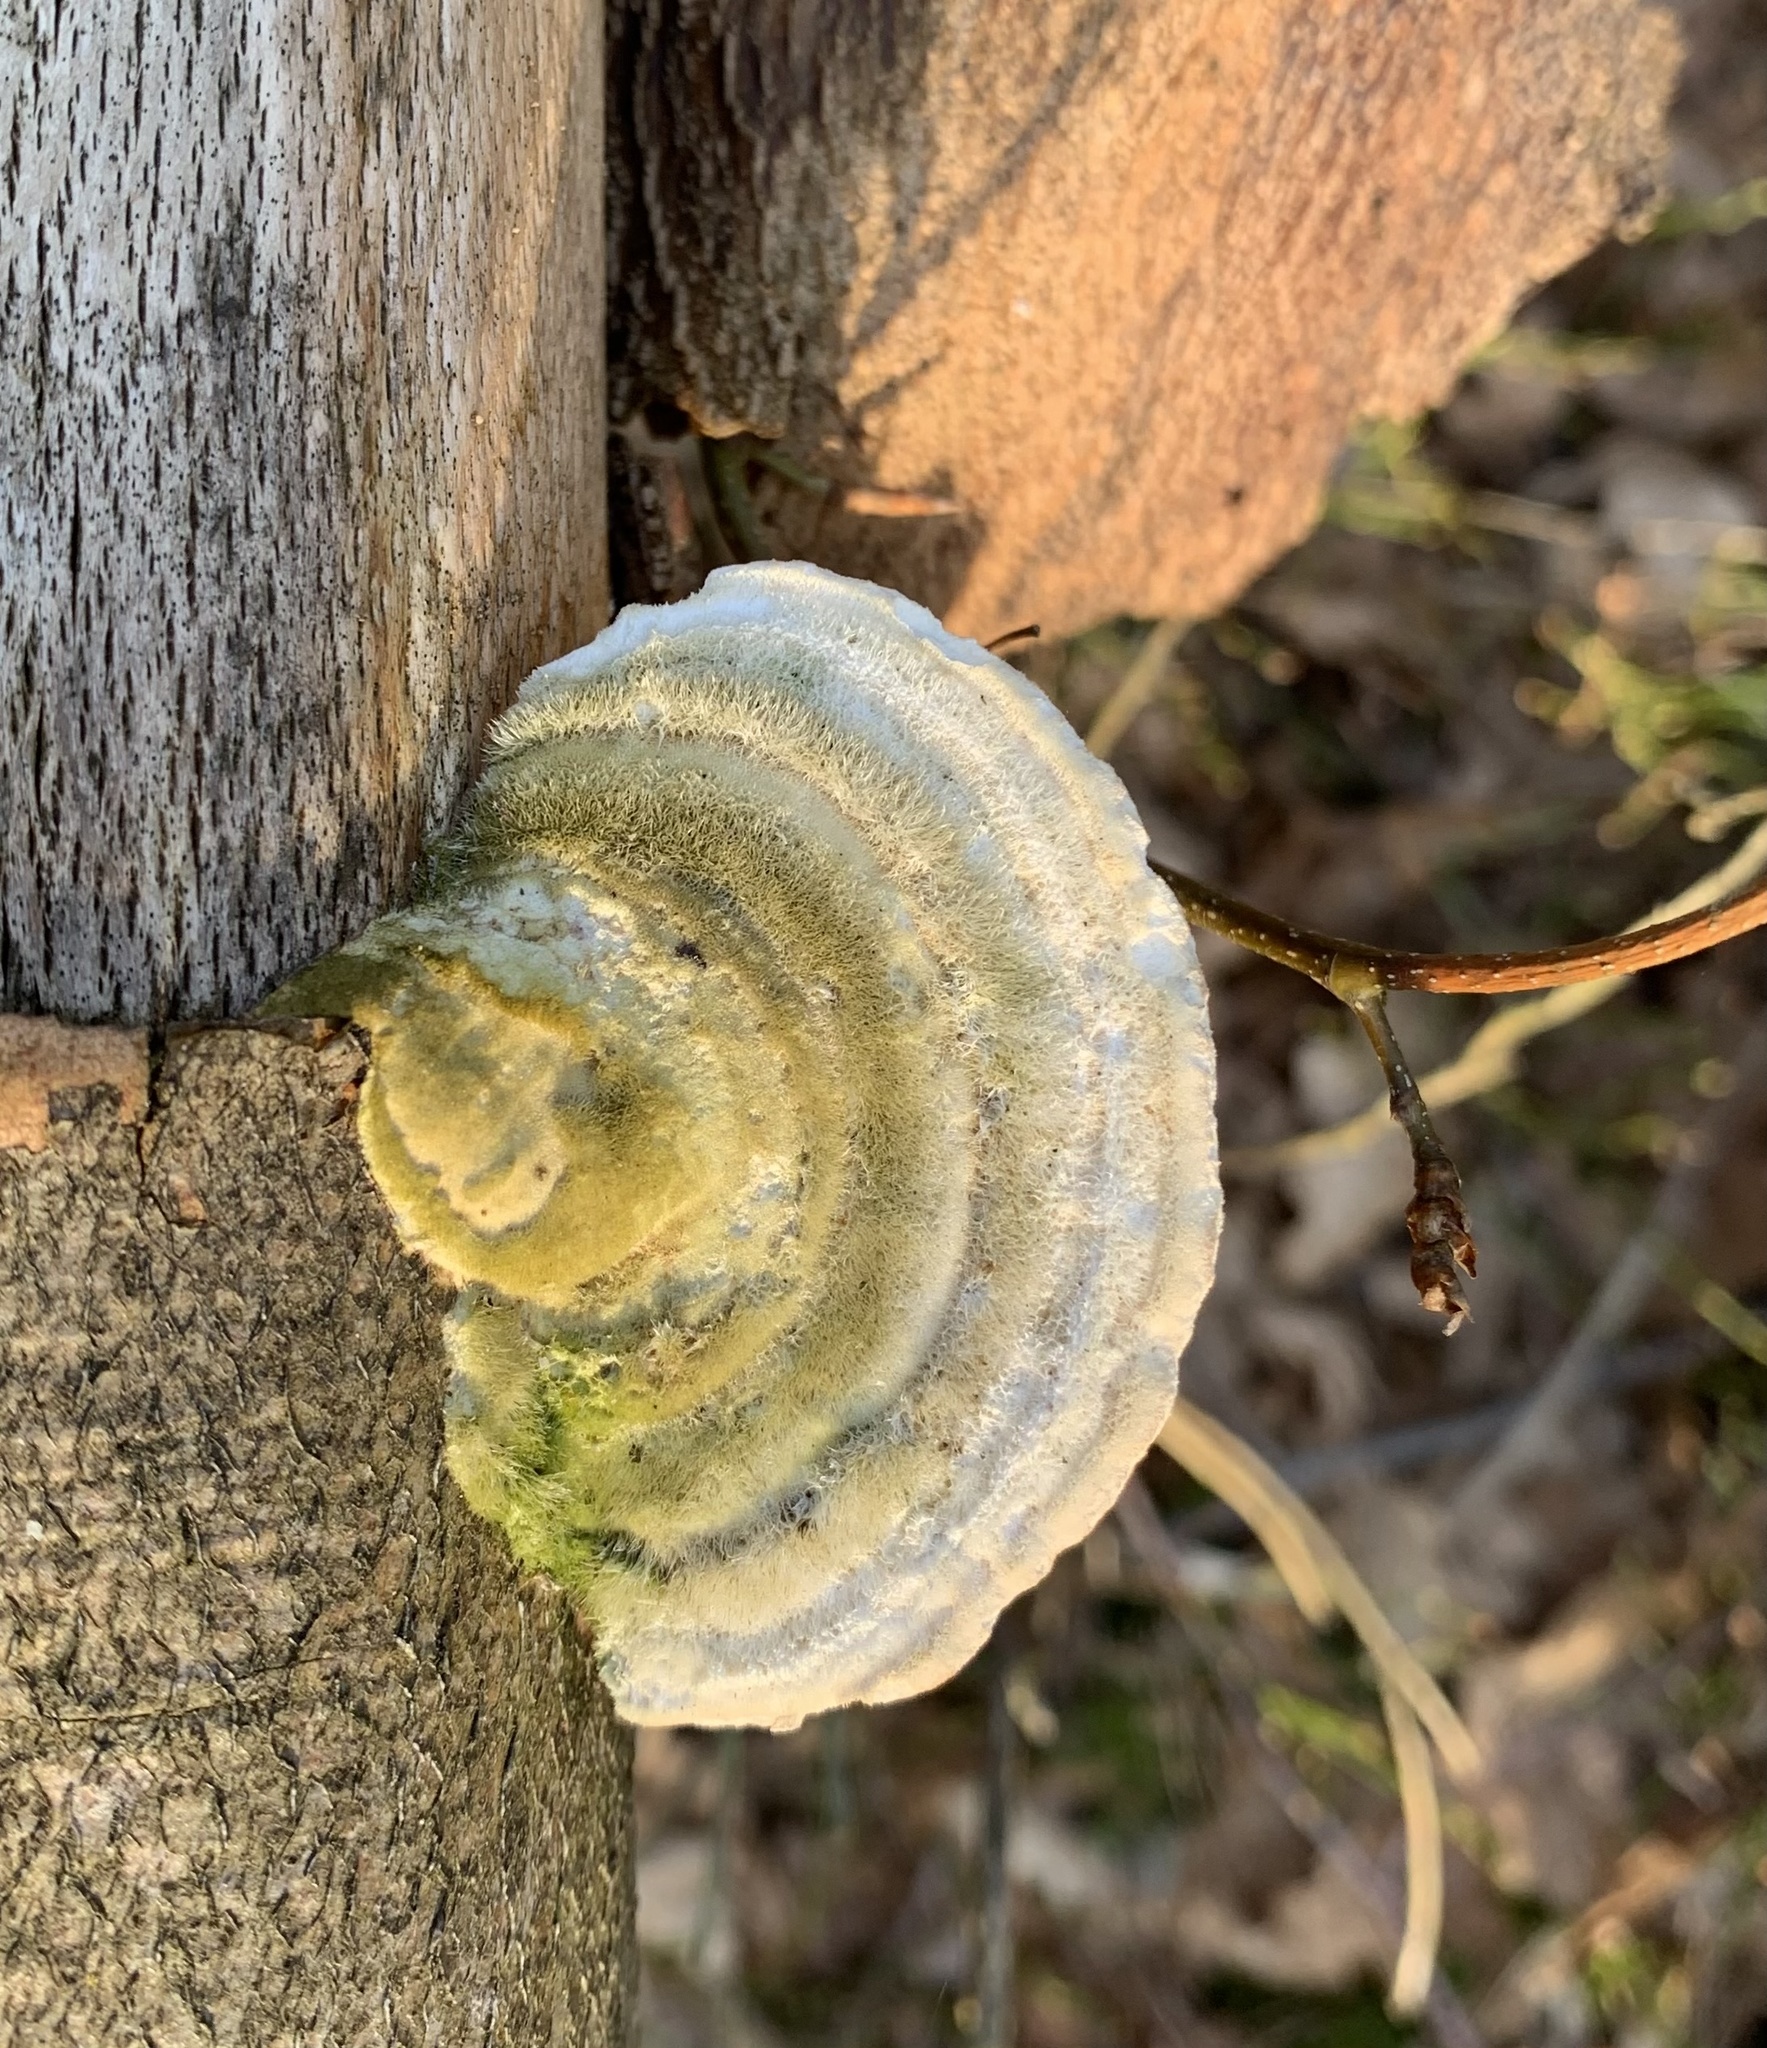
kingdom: Fungi
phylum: Basidiomycota
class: Agaricomycetes
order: Polyporales
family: Polyporaceae
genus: Trametes
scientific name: Trametes hirsuta
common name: Hairy bracket
